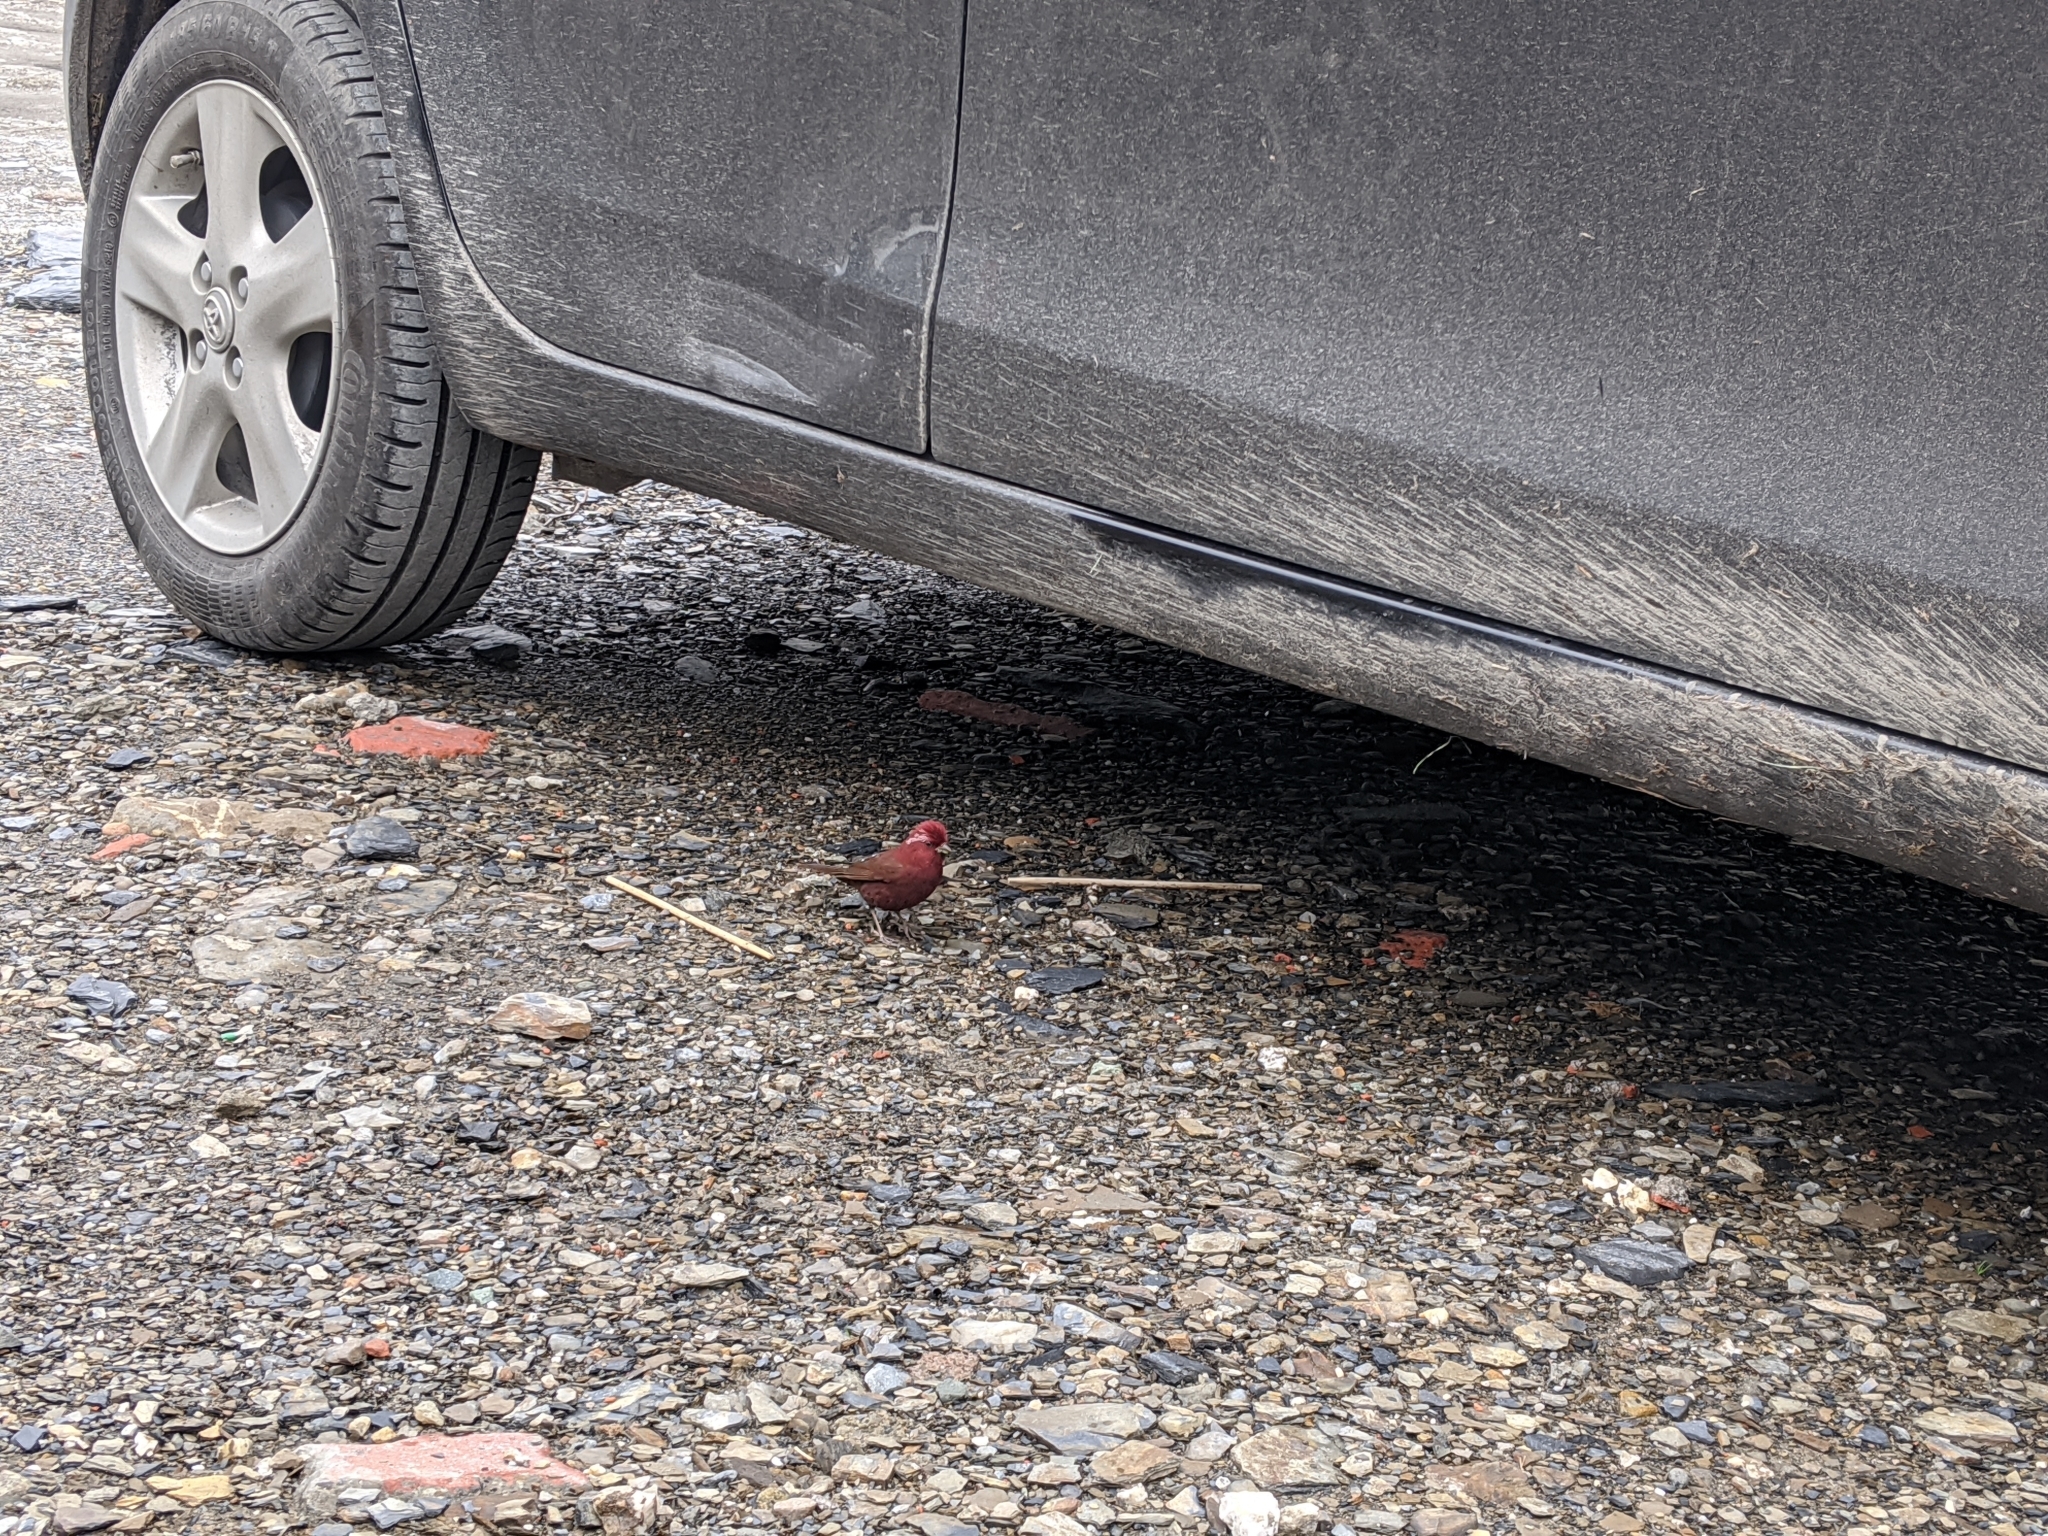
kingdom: Animalia
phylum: Chordata
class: Aves
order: Passeriformes
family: Fringillidae
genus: Carpodacus
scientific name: Carpodacus formosanus
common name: Taiwan rosefinch
